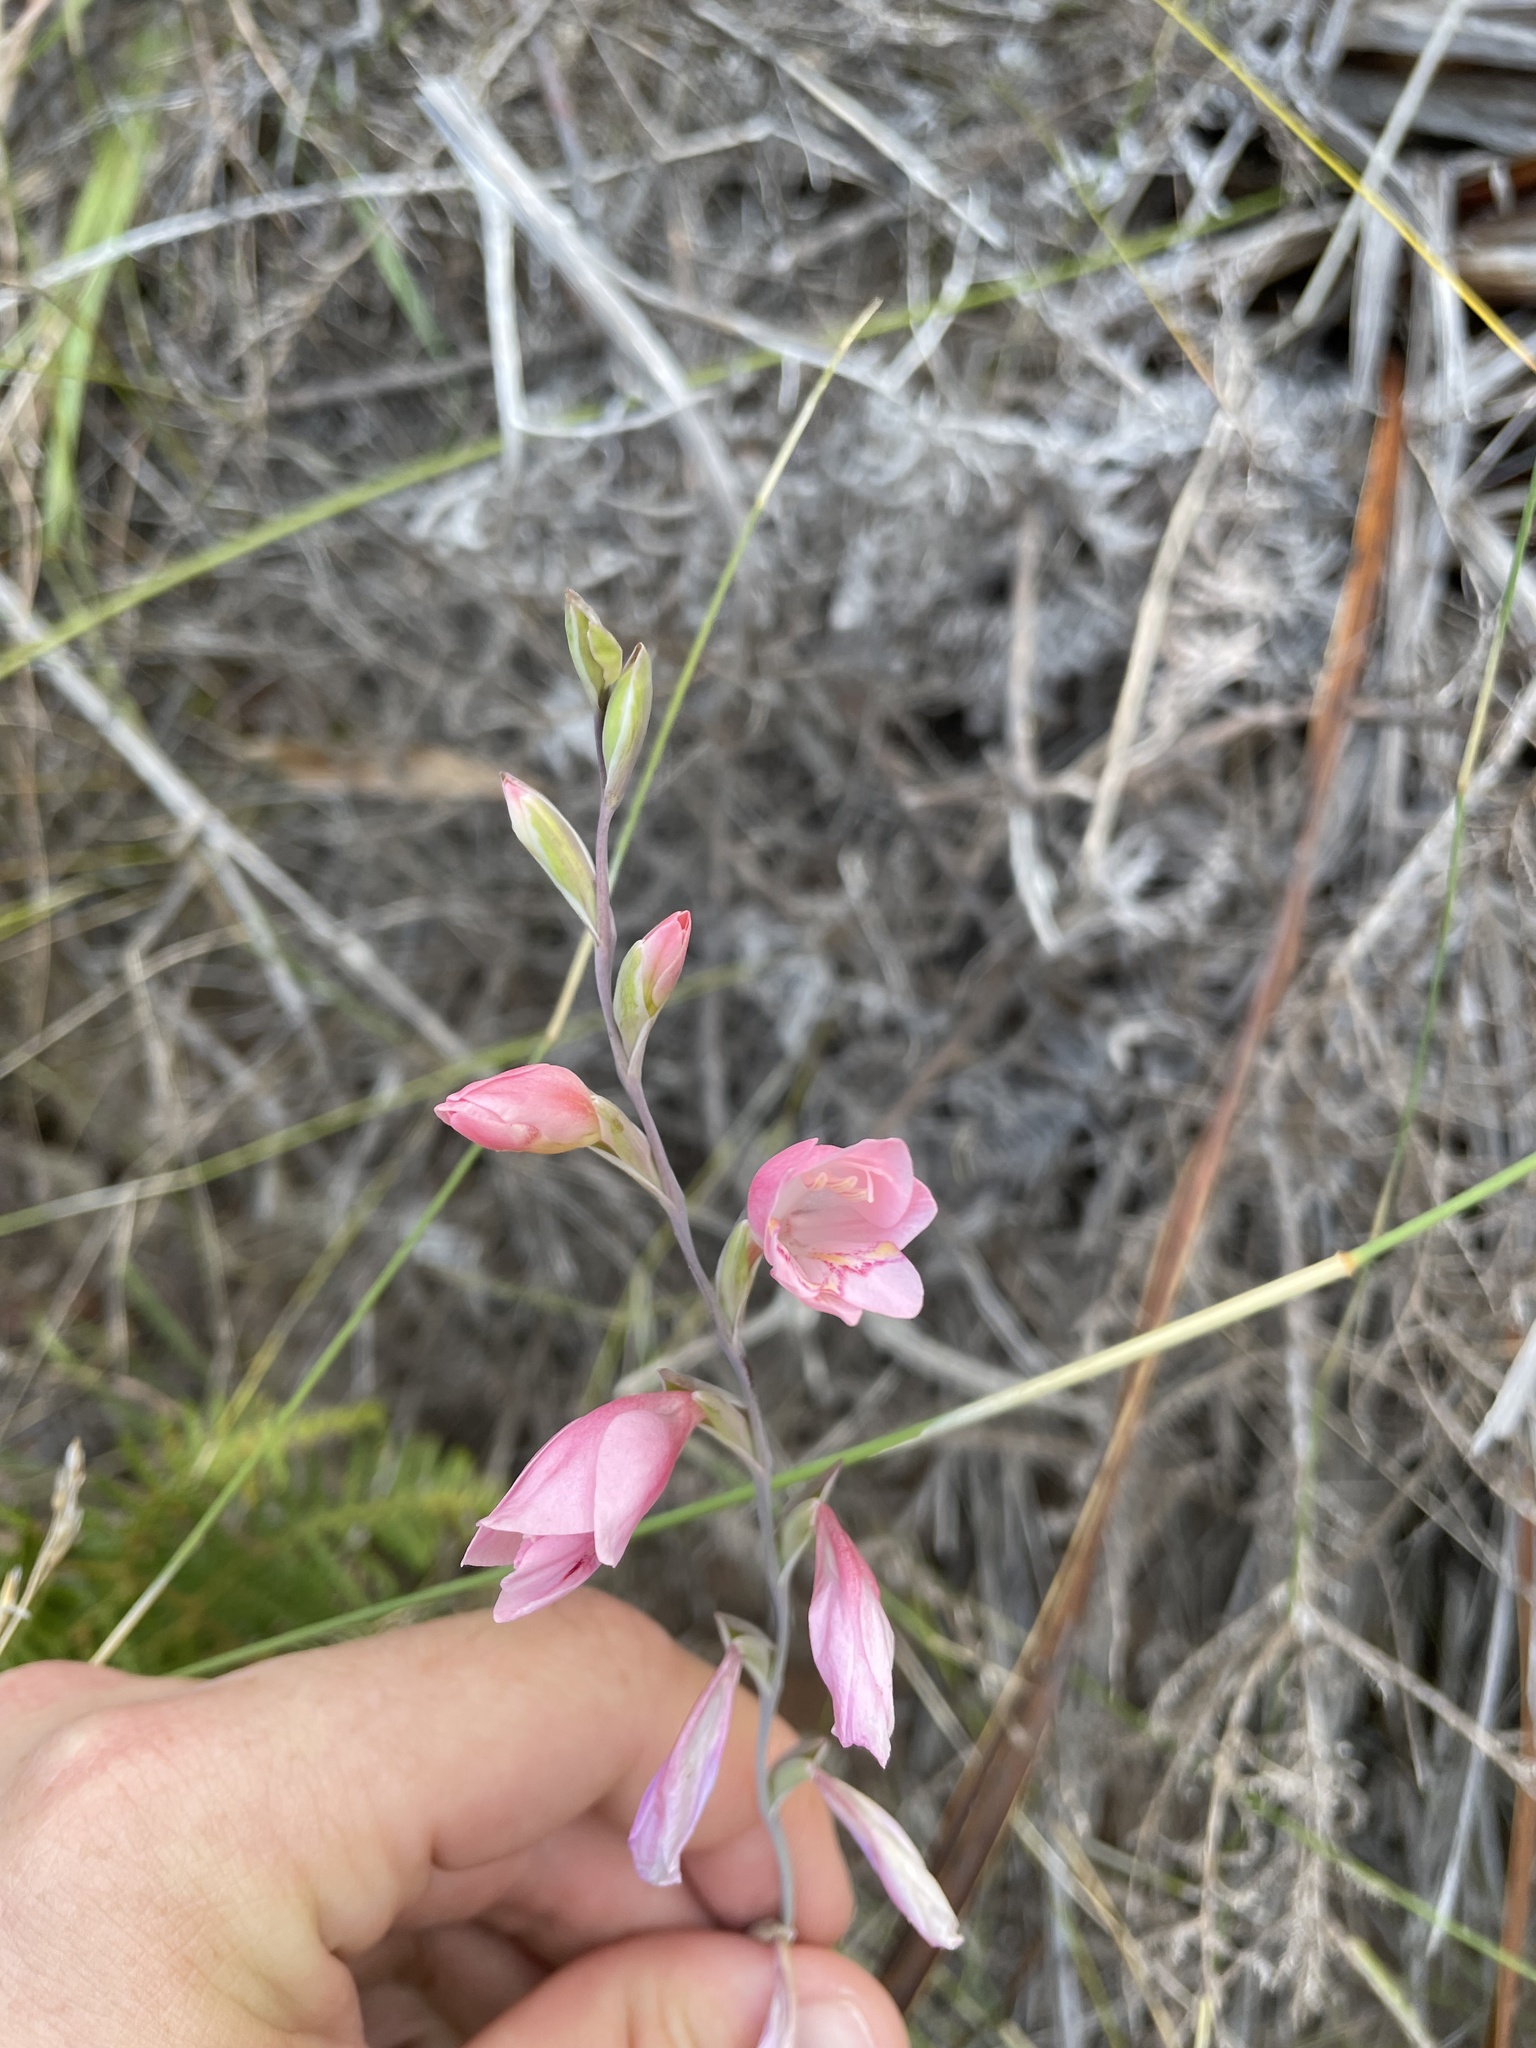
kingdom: Plantae
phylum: Tracheophyta
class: Liliopsida
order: Asparagales
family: Iridaceae
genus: Gladiolus
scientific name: Gladiolus brevifolius
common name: March pypie
